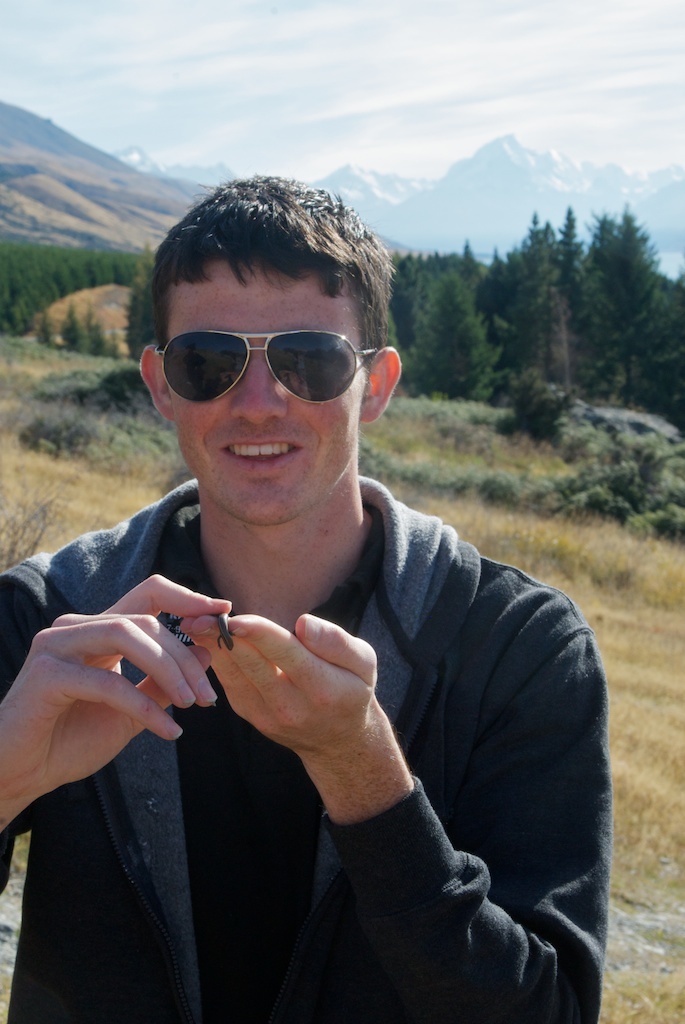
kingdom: Animalia
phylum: Chordata
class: Squamata
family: Scincidae
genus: Oligosoma
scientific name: Oligosoma polychroma
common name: Common new zealand skink
